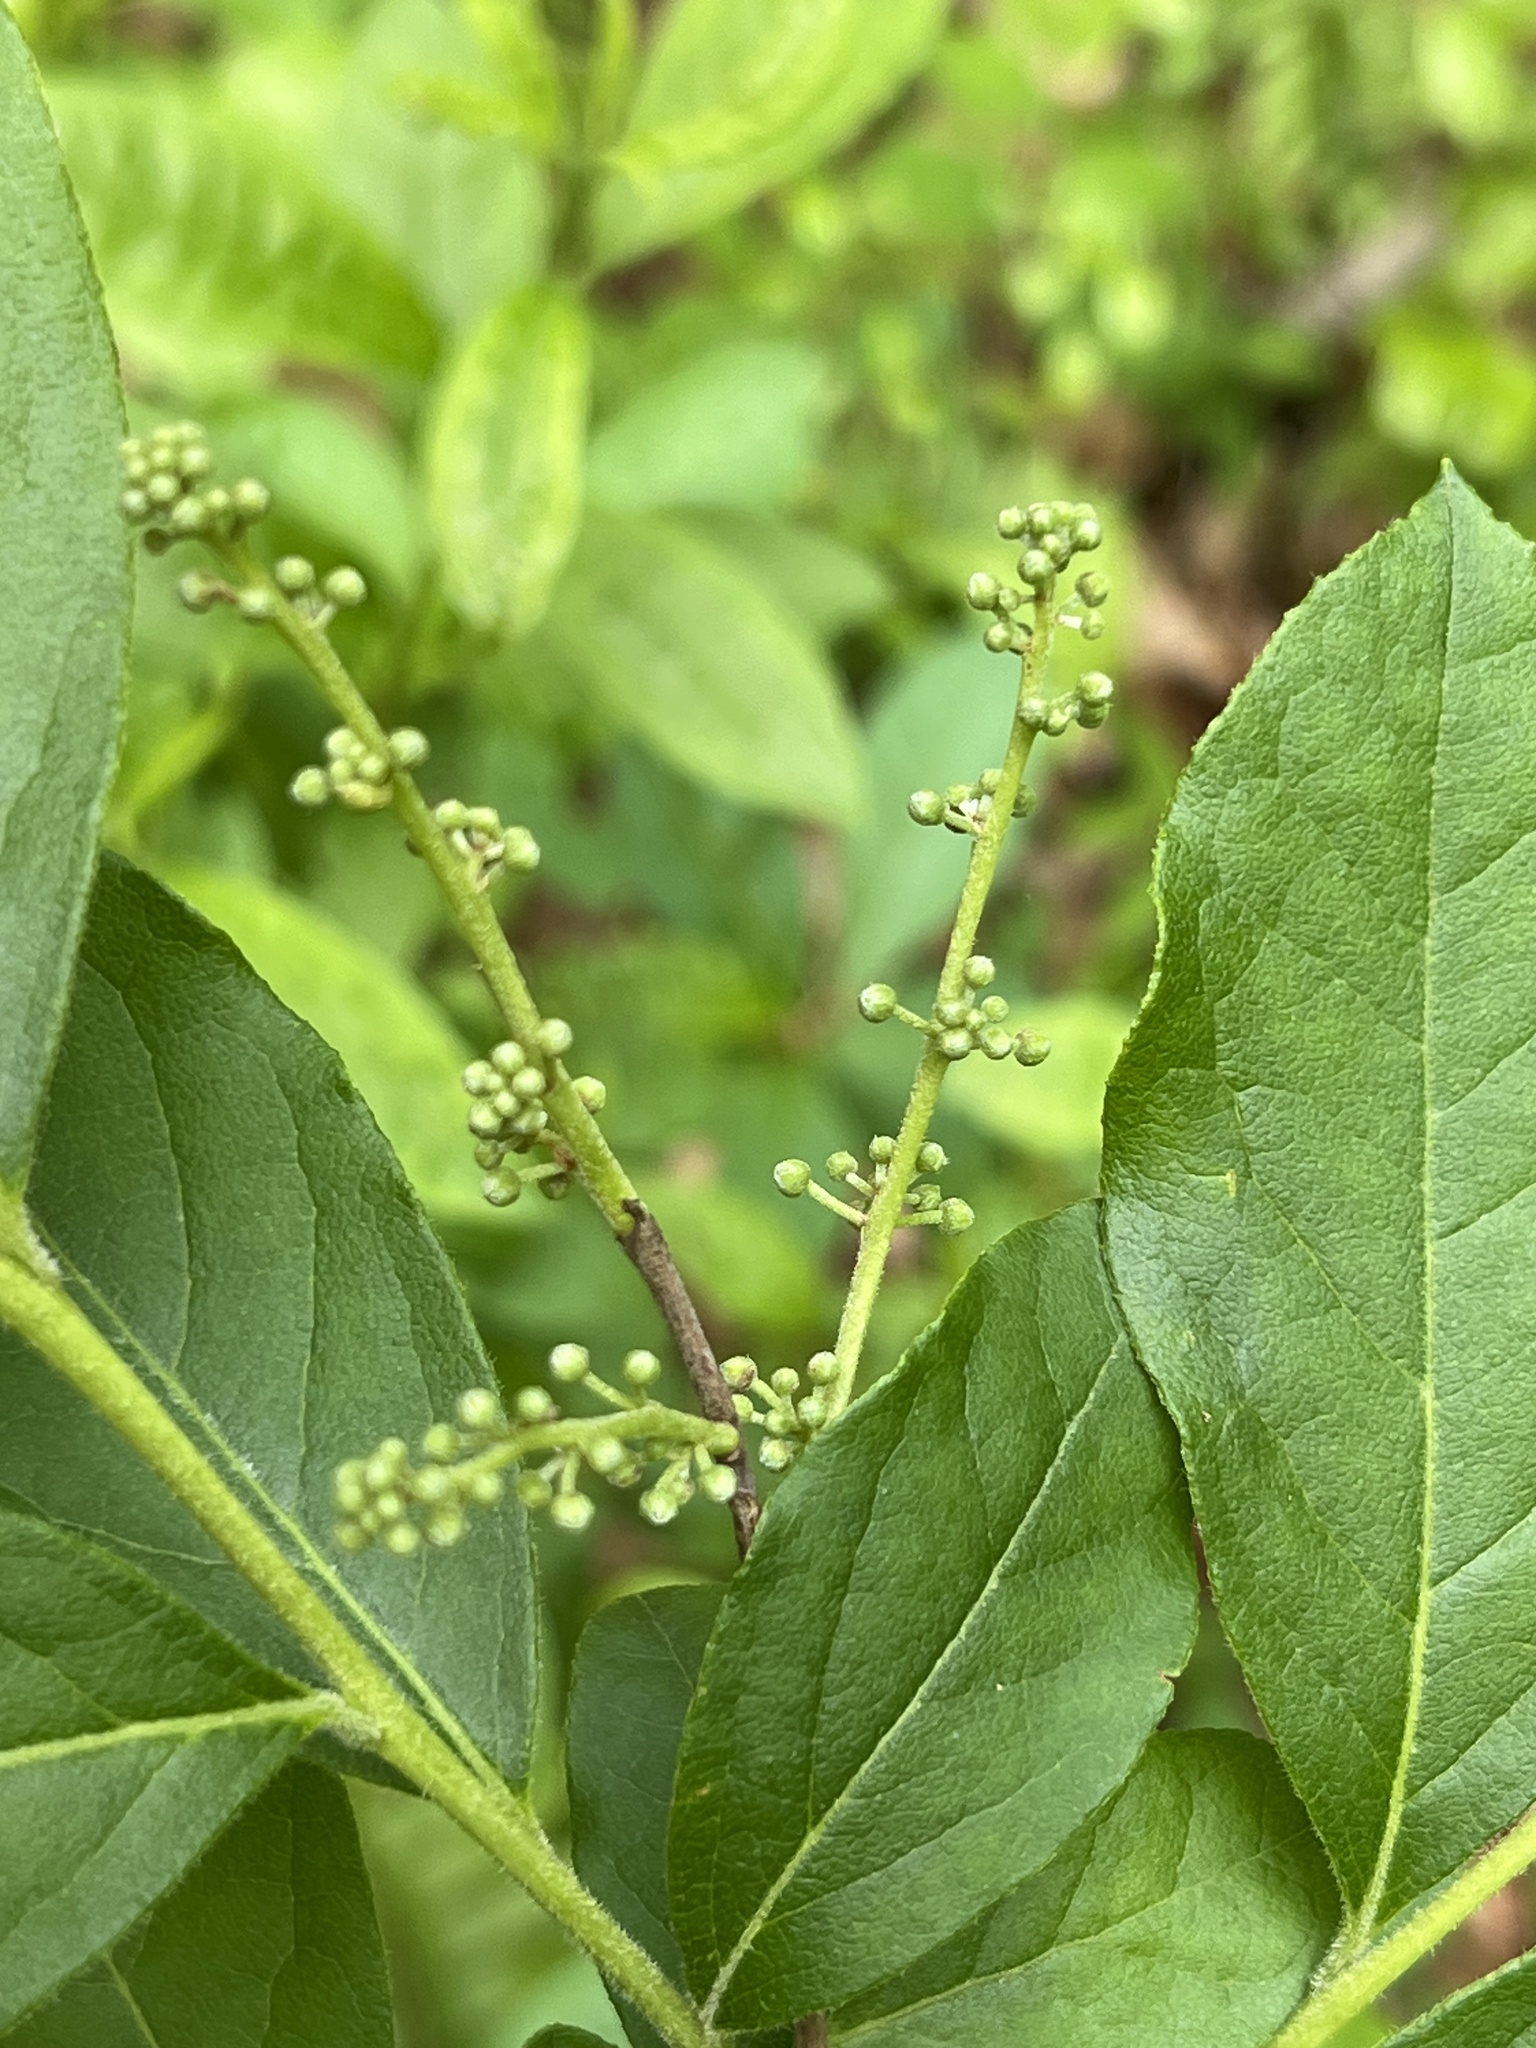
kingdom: Plantae
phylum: Tracheophyta
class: Magnoliopsida
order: Ericales
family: Ericaceae
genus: Lyonia
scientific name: Lyonia ligustrina
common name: Maleberry
